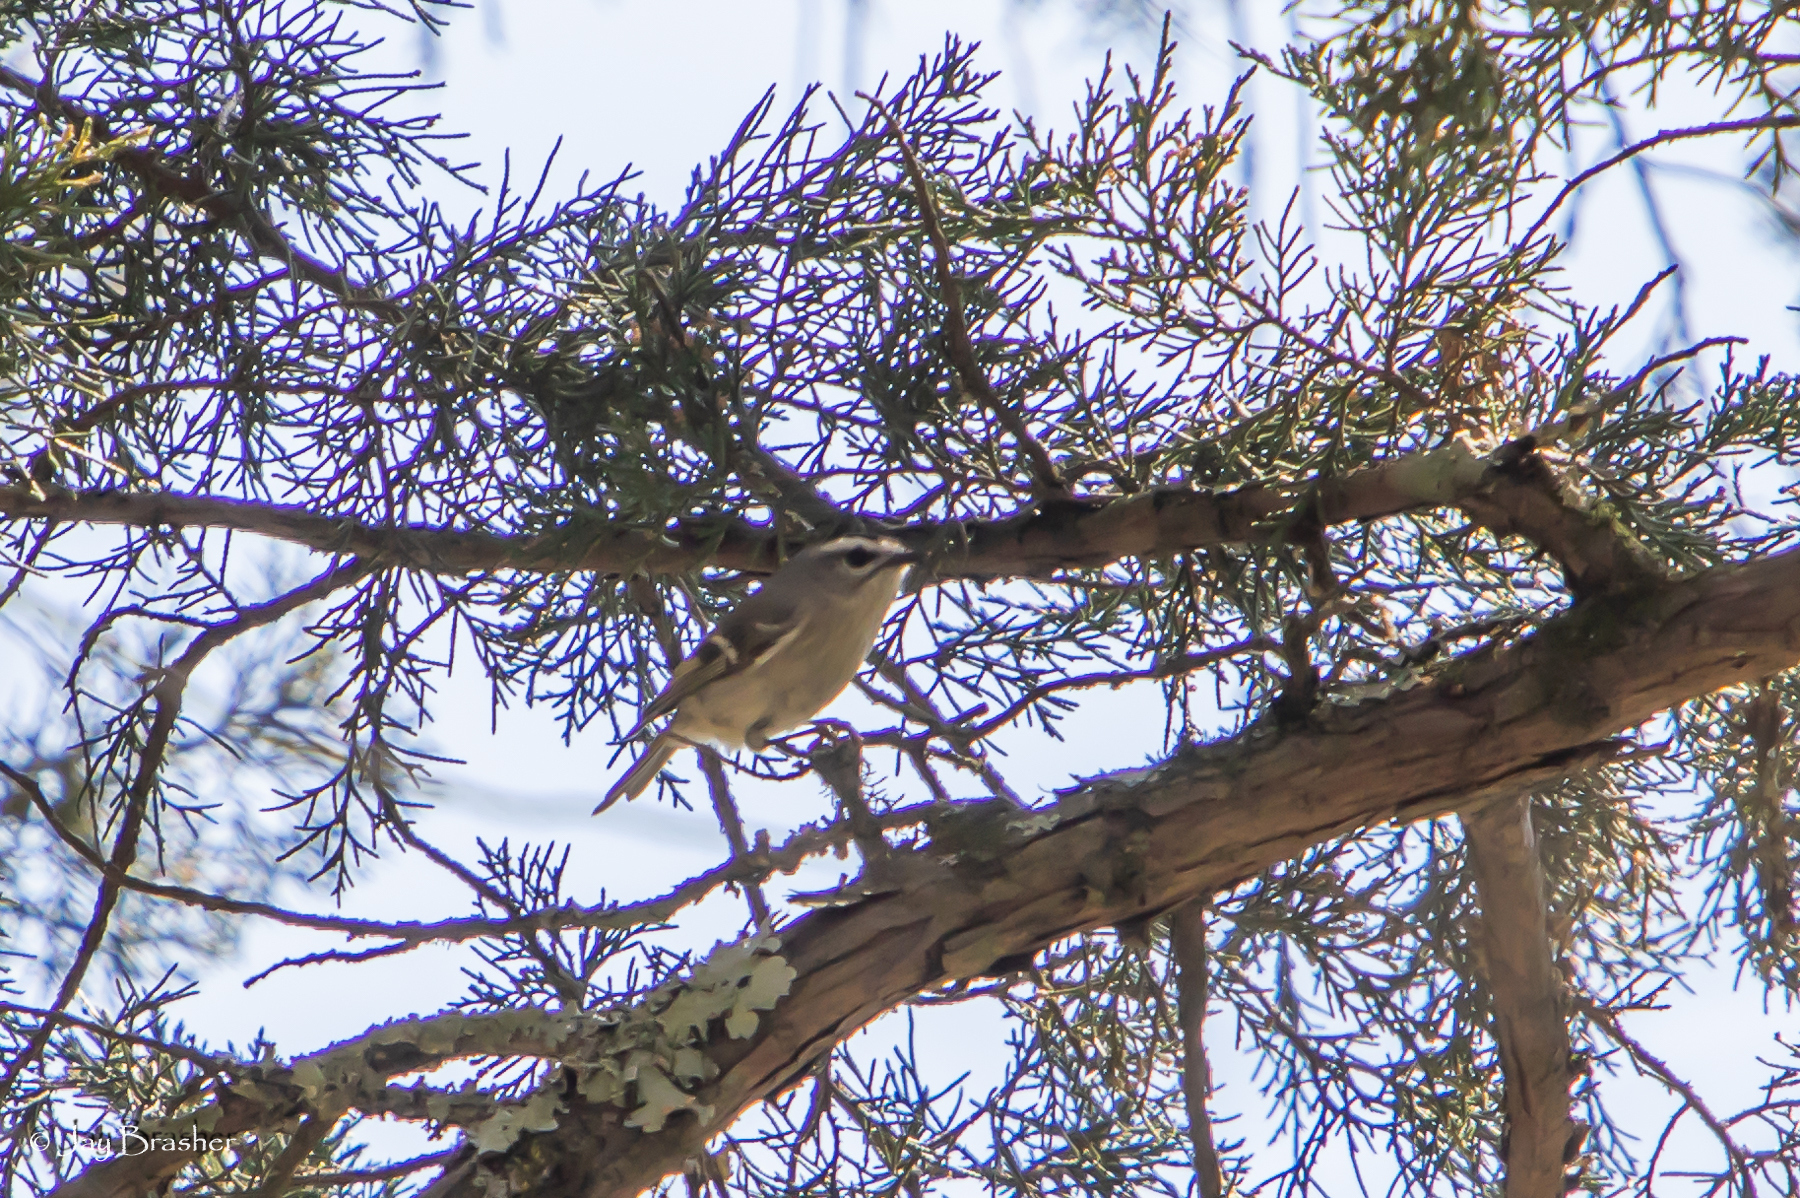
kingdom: Animalia
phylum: Chordata
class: Aves
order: Passeriformes
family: Regulidae
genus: Regulus
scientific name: Regulus satrapa
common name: Golden-crowned kinglet
